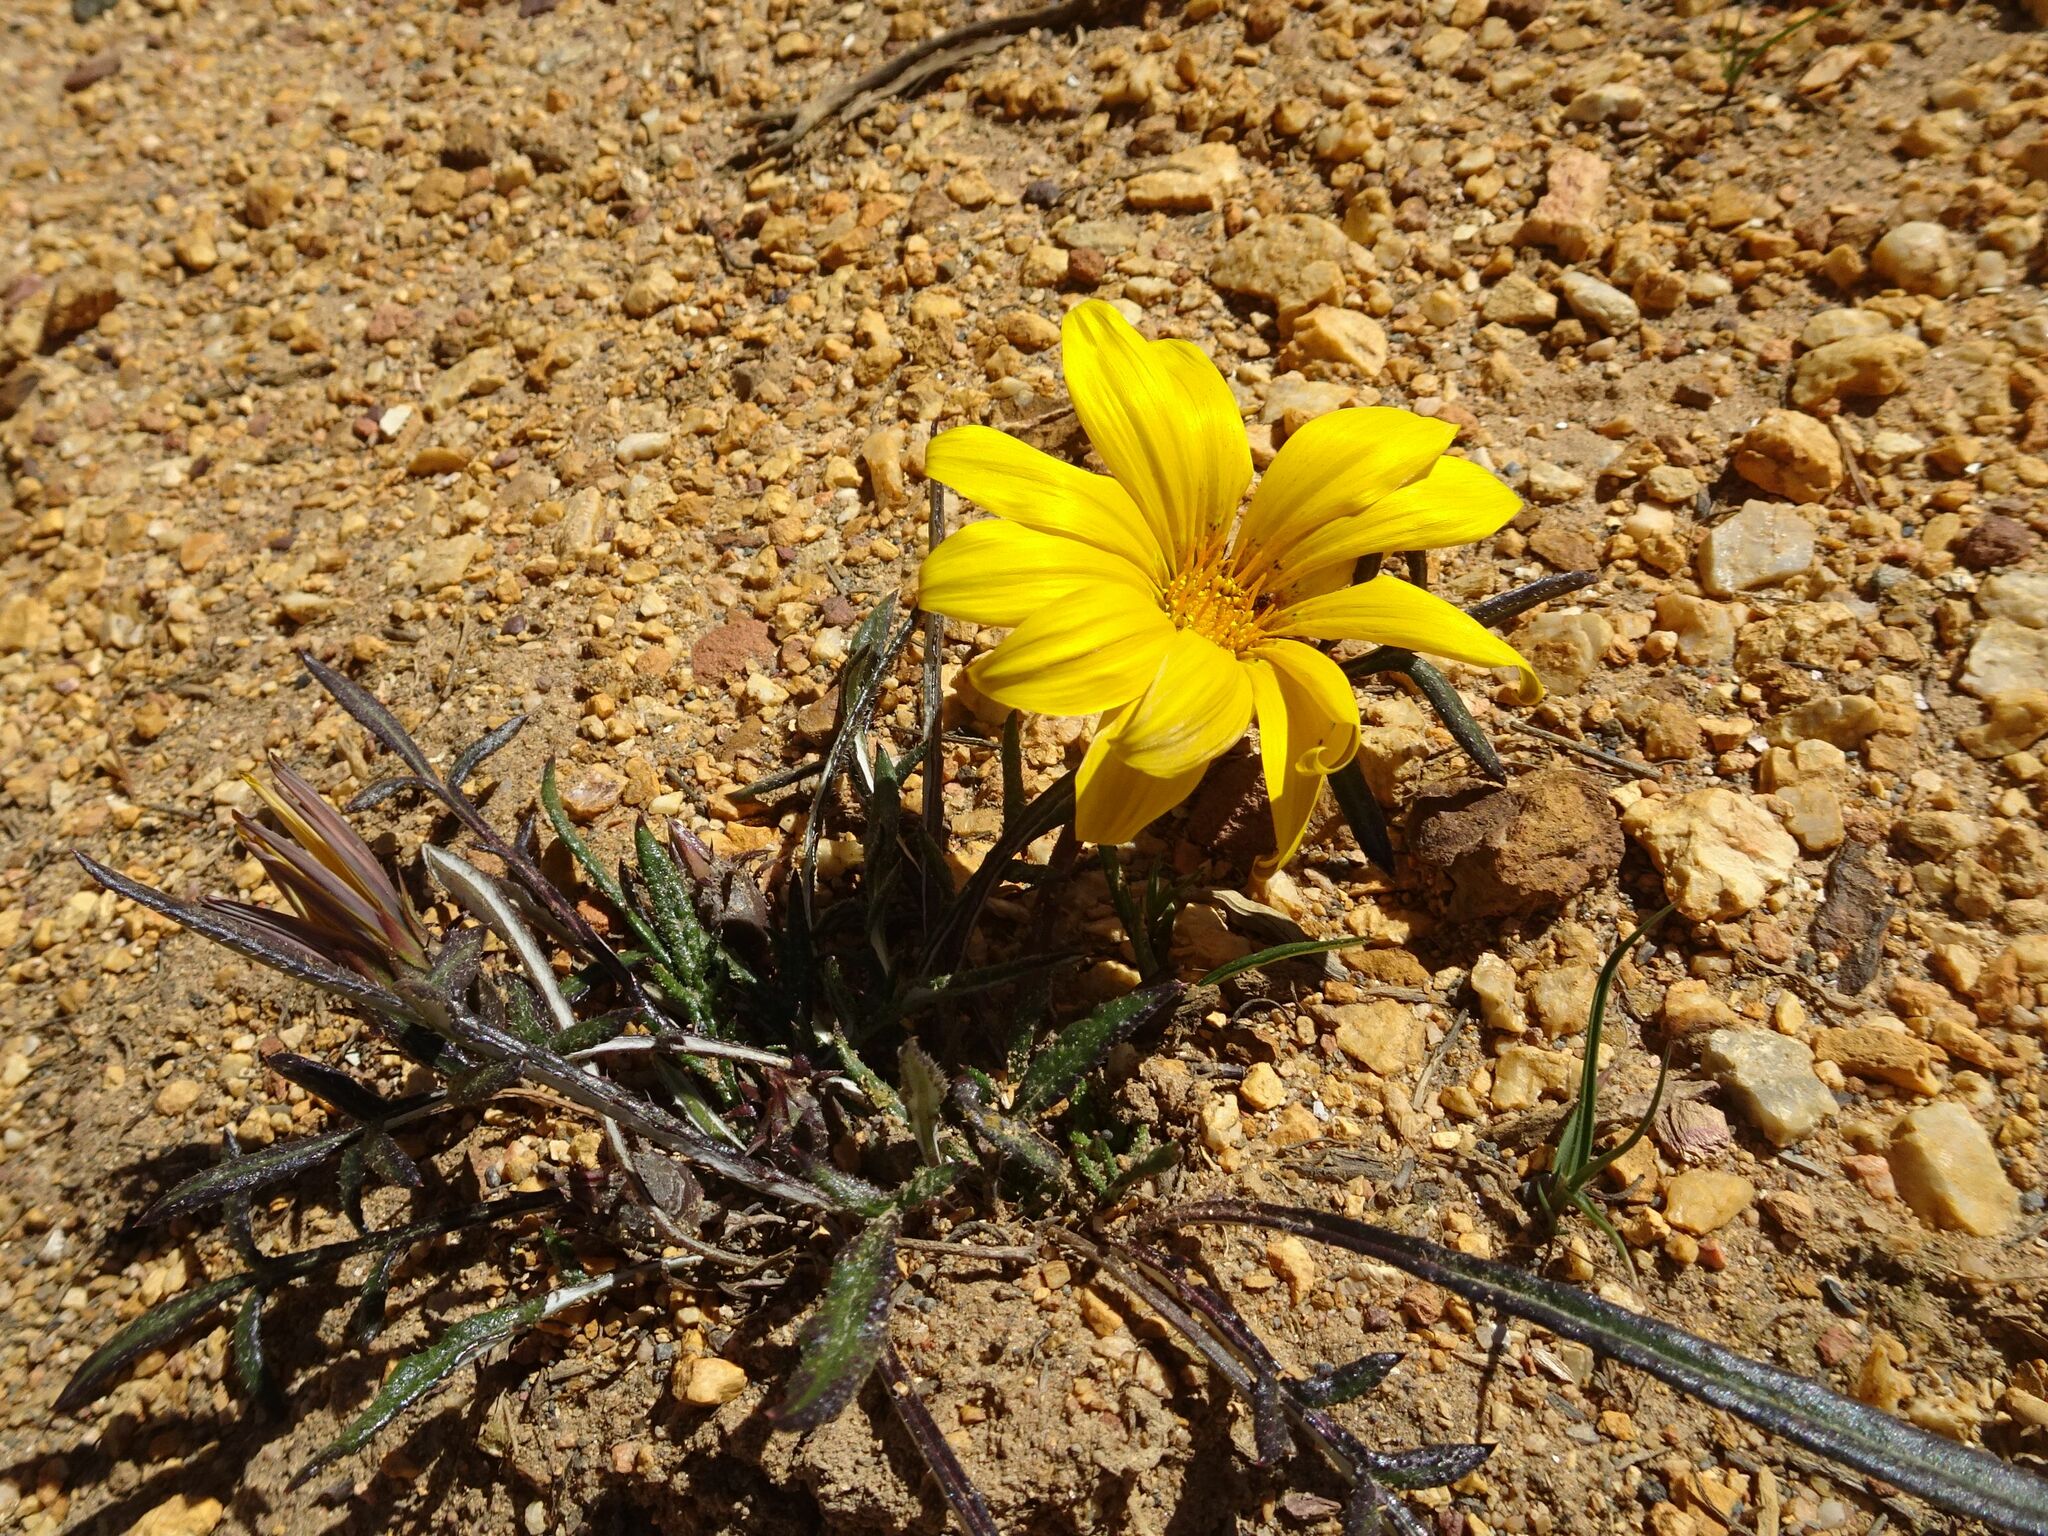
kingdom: Plantae
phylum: Tracheophyta
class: Magnoliopsida
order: Asterales
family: Asteraceae
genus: Gazania
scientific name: Gazania krebsiana
